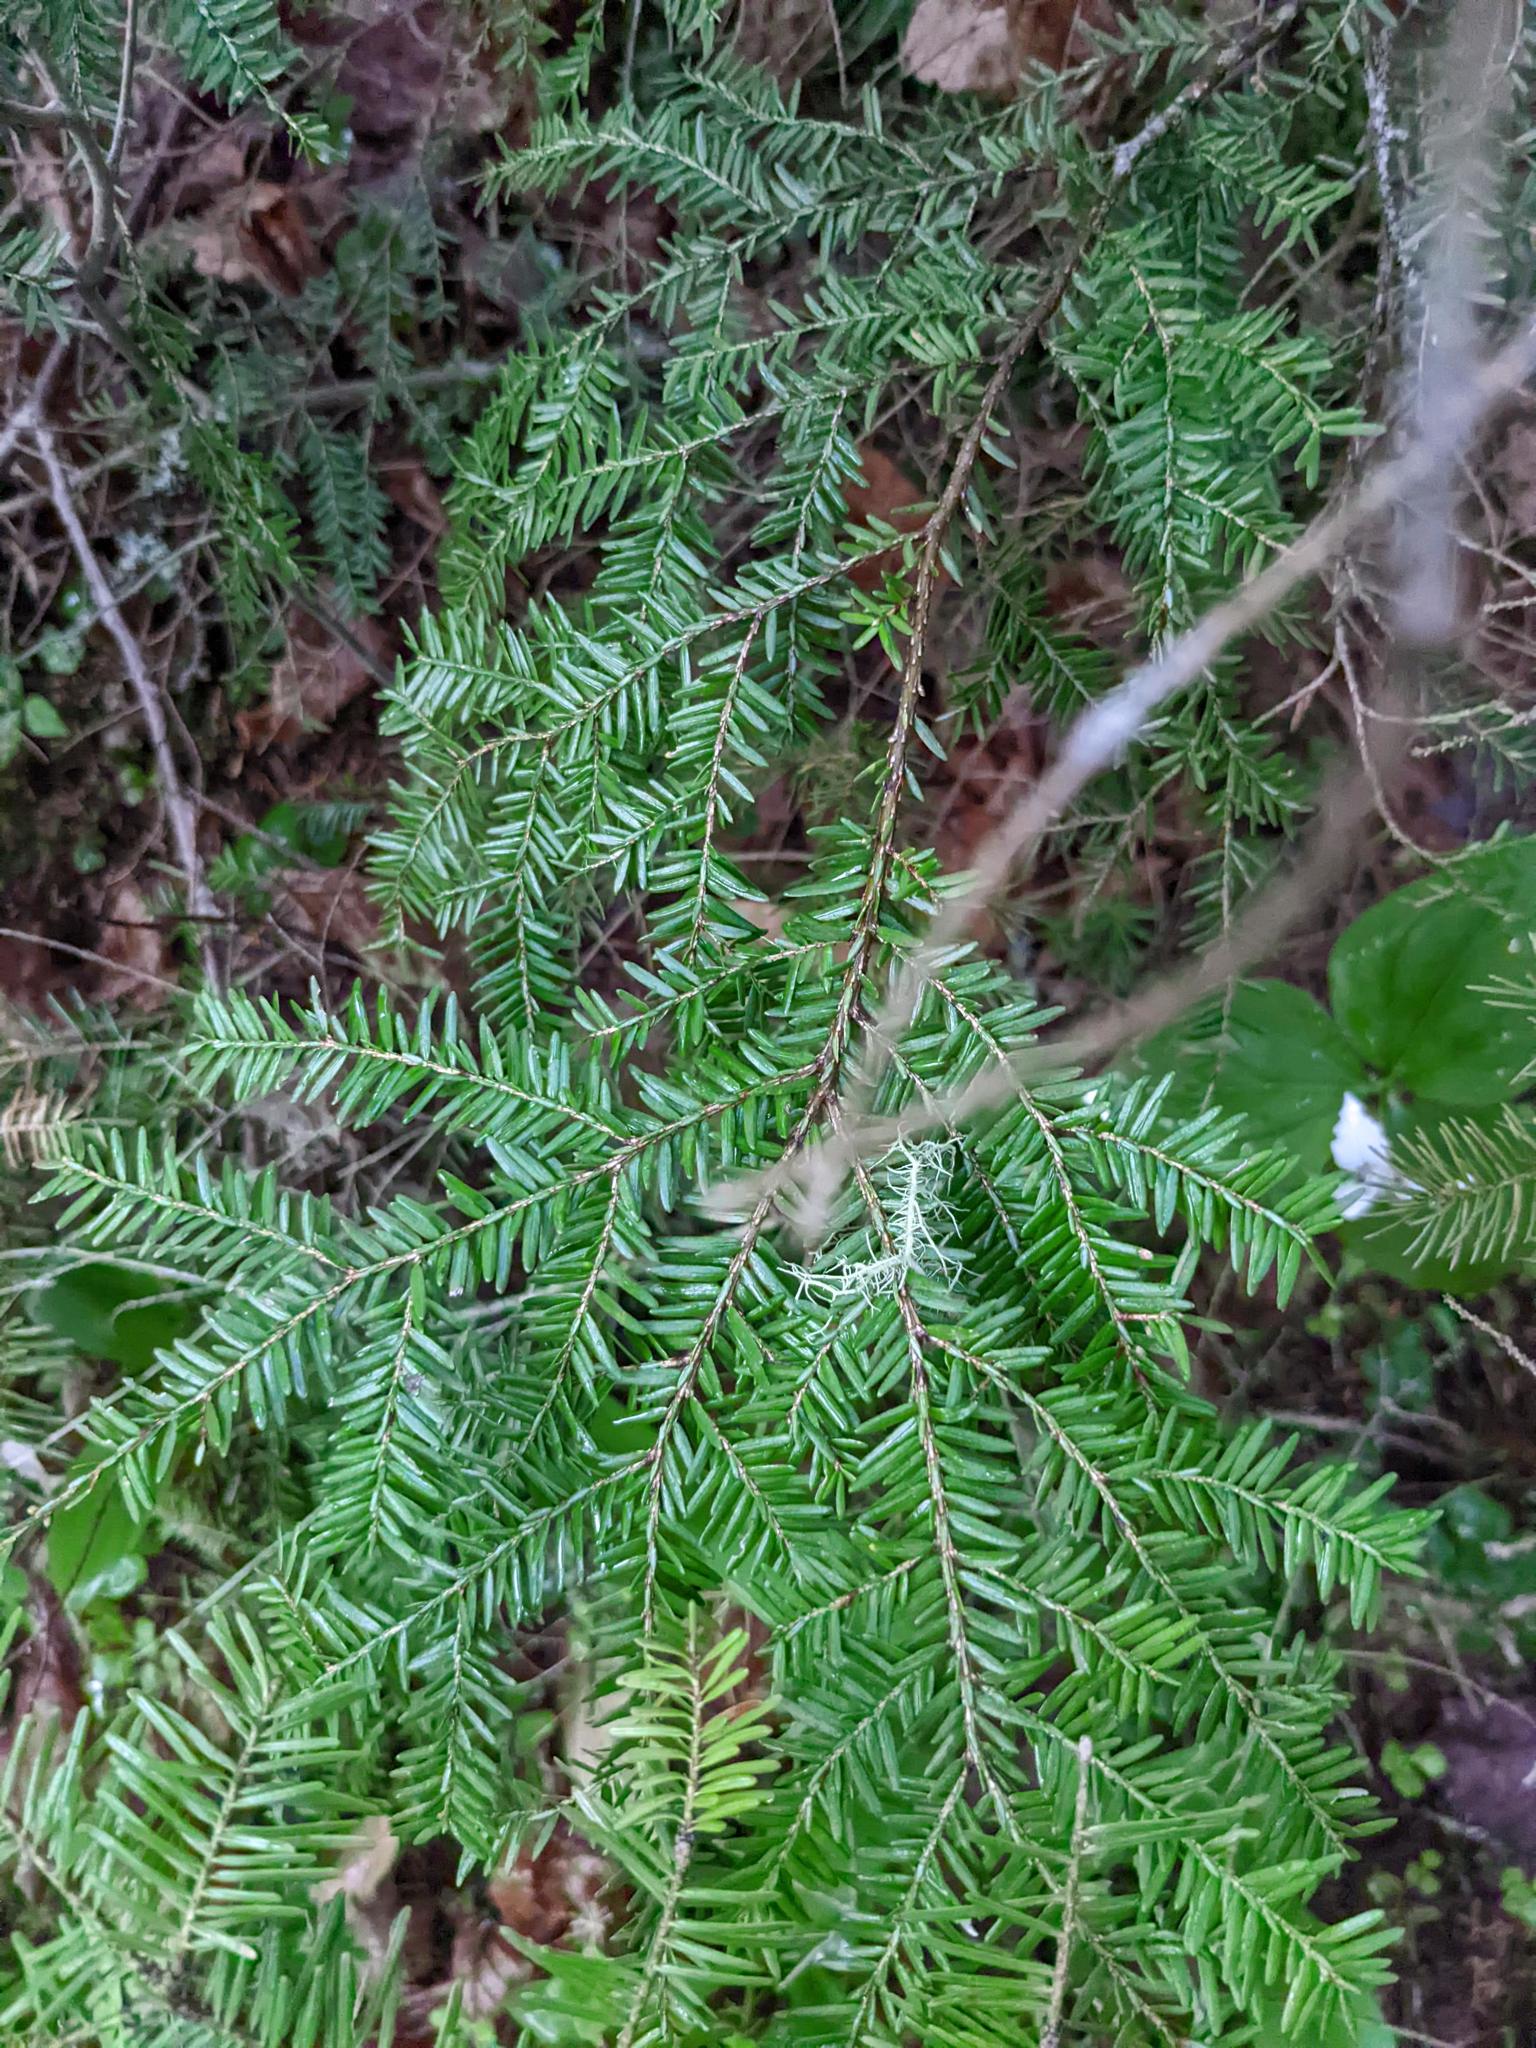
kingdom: Plantae
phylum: Tracheophyta
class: Pinopsida
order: Pinales
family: Pinaceae
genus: Tsuga
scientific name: Tsuga canadensis
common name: Eastern hemlock
